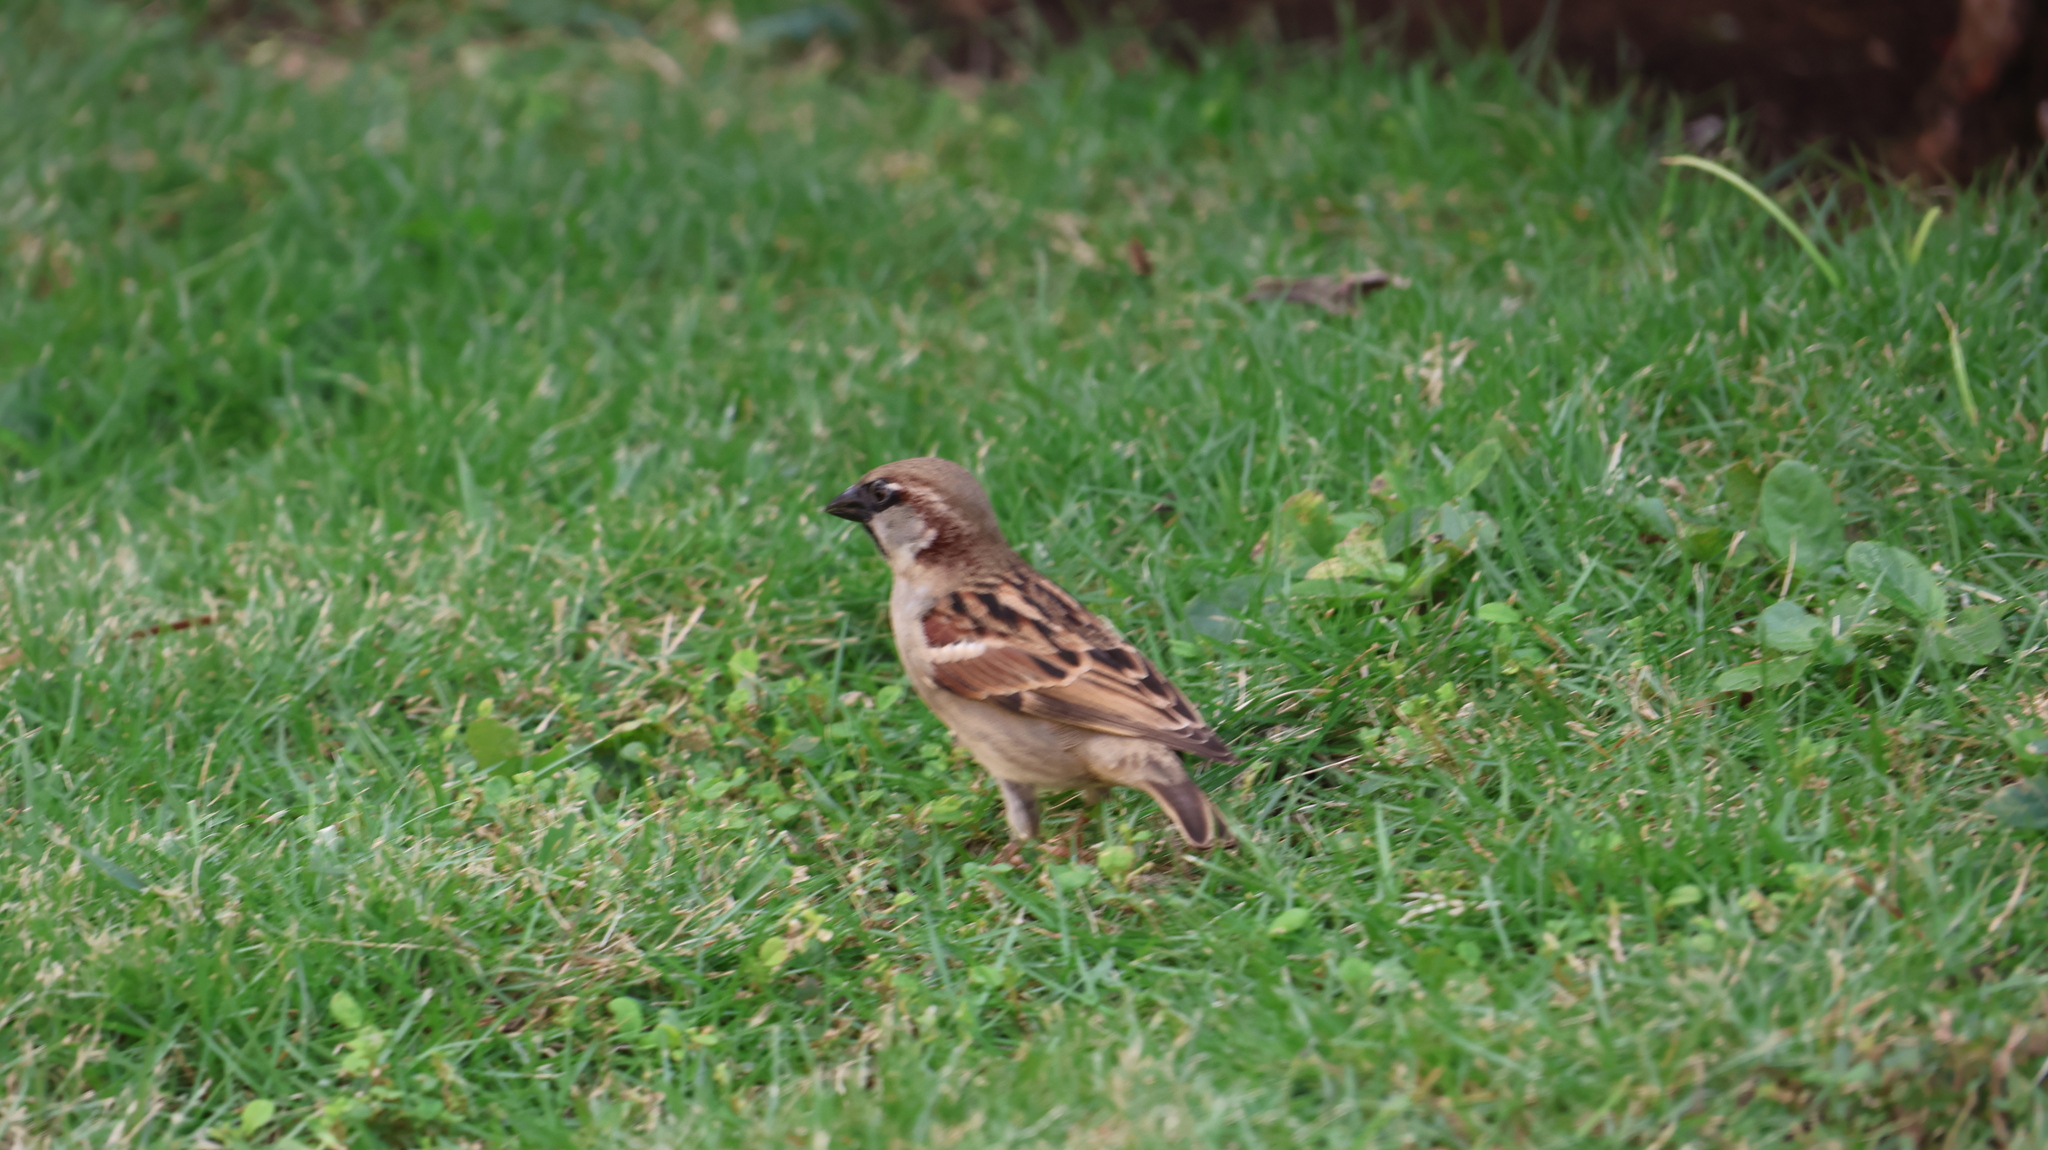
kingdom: Animalia
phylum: Chordata
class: Aves
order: Passeriformes
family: Passeridae
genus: Passer
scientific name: Passer domesticus
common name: House sparrow
